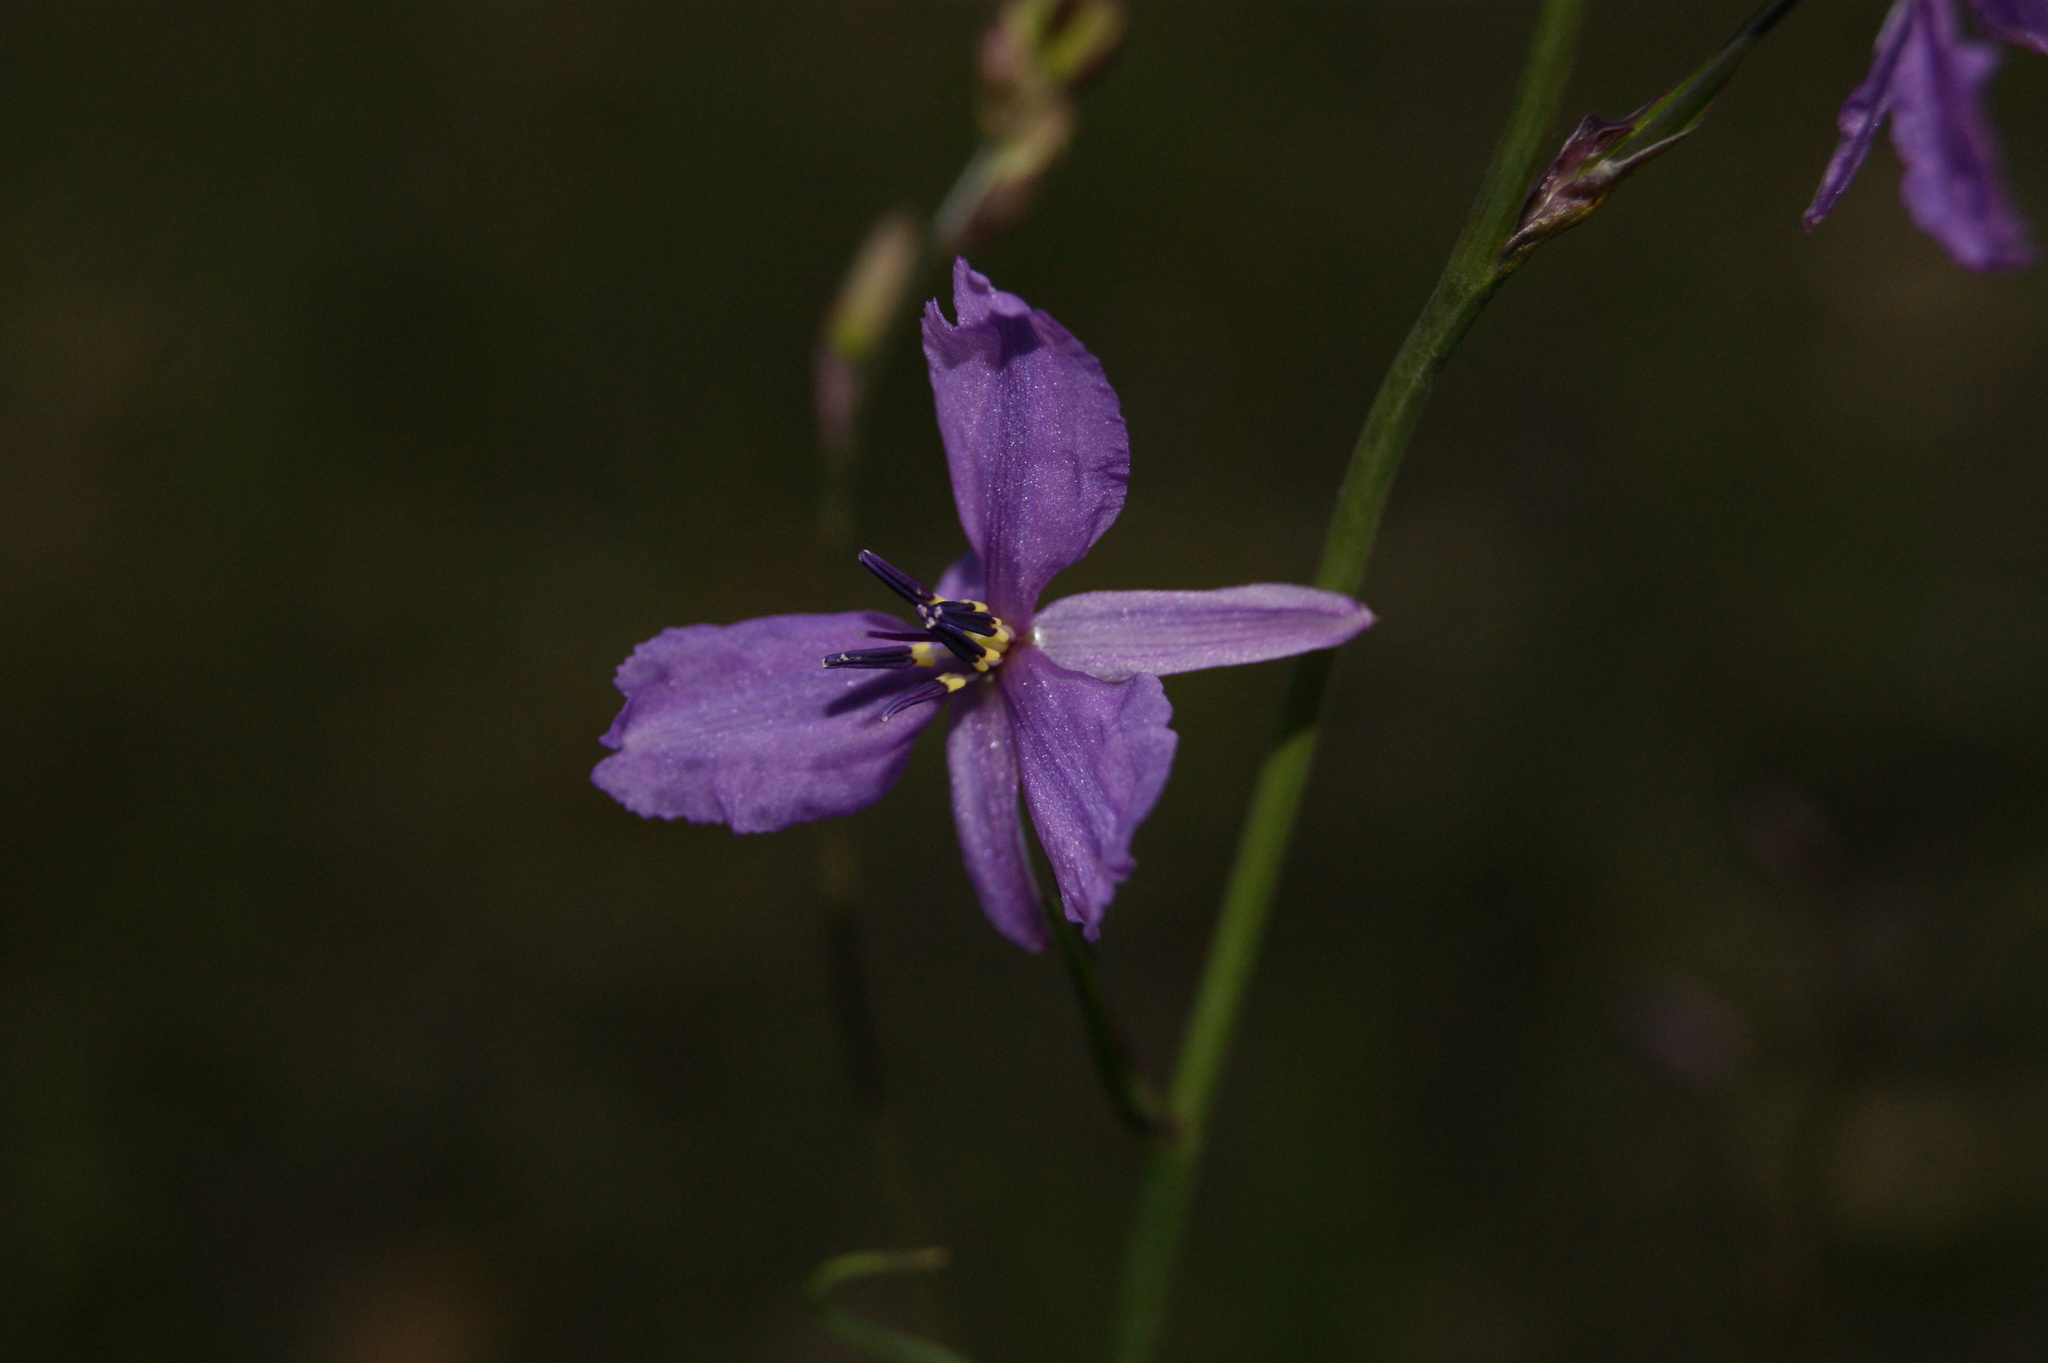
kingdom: Plantae
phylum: Tracheophyta
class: Liliopsida
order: Asparagales
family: Asparagaceae
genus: Arthropodium
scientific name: Arthropodium strictum
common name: Chocolate-lily
